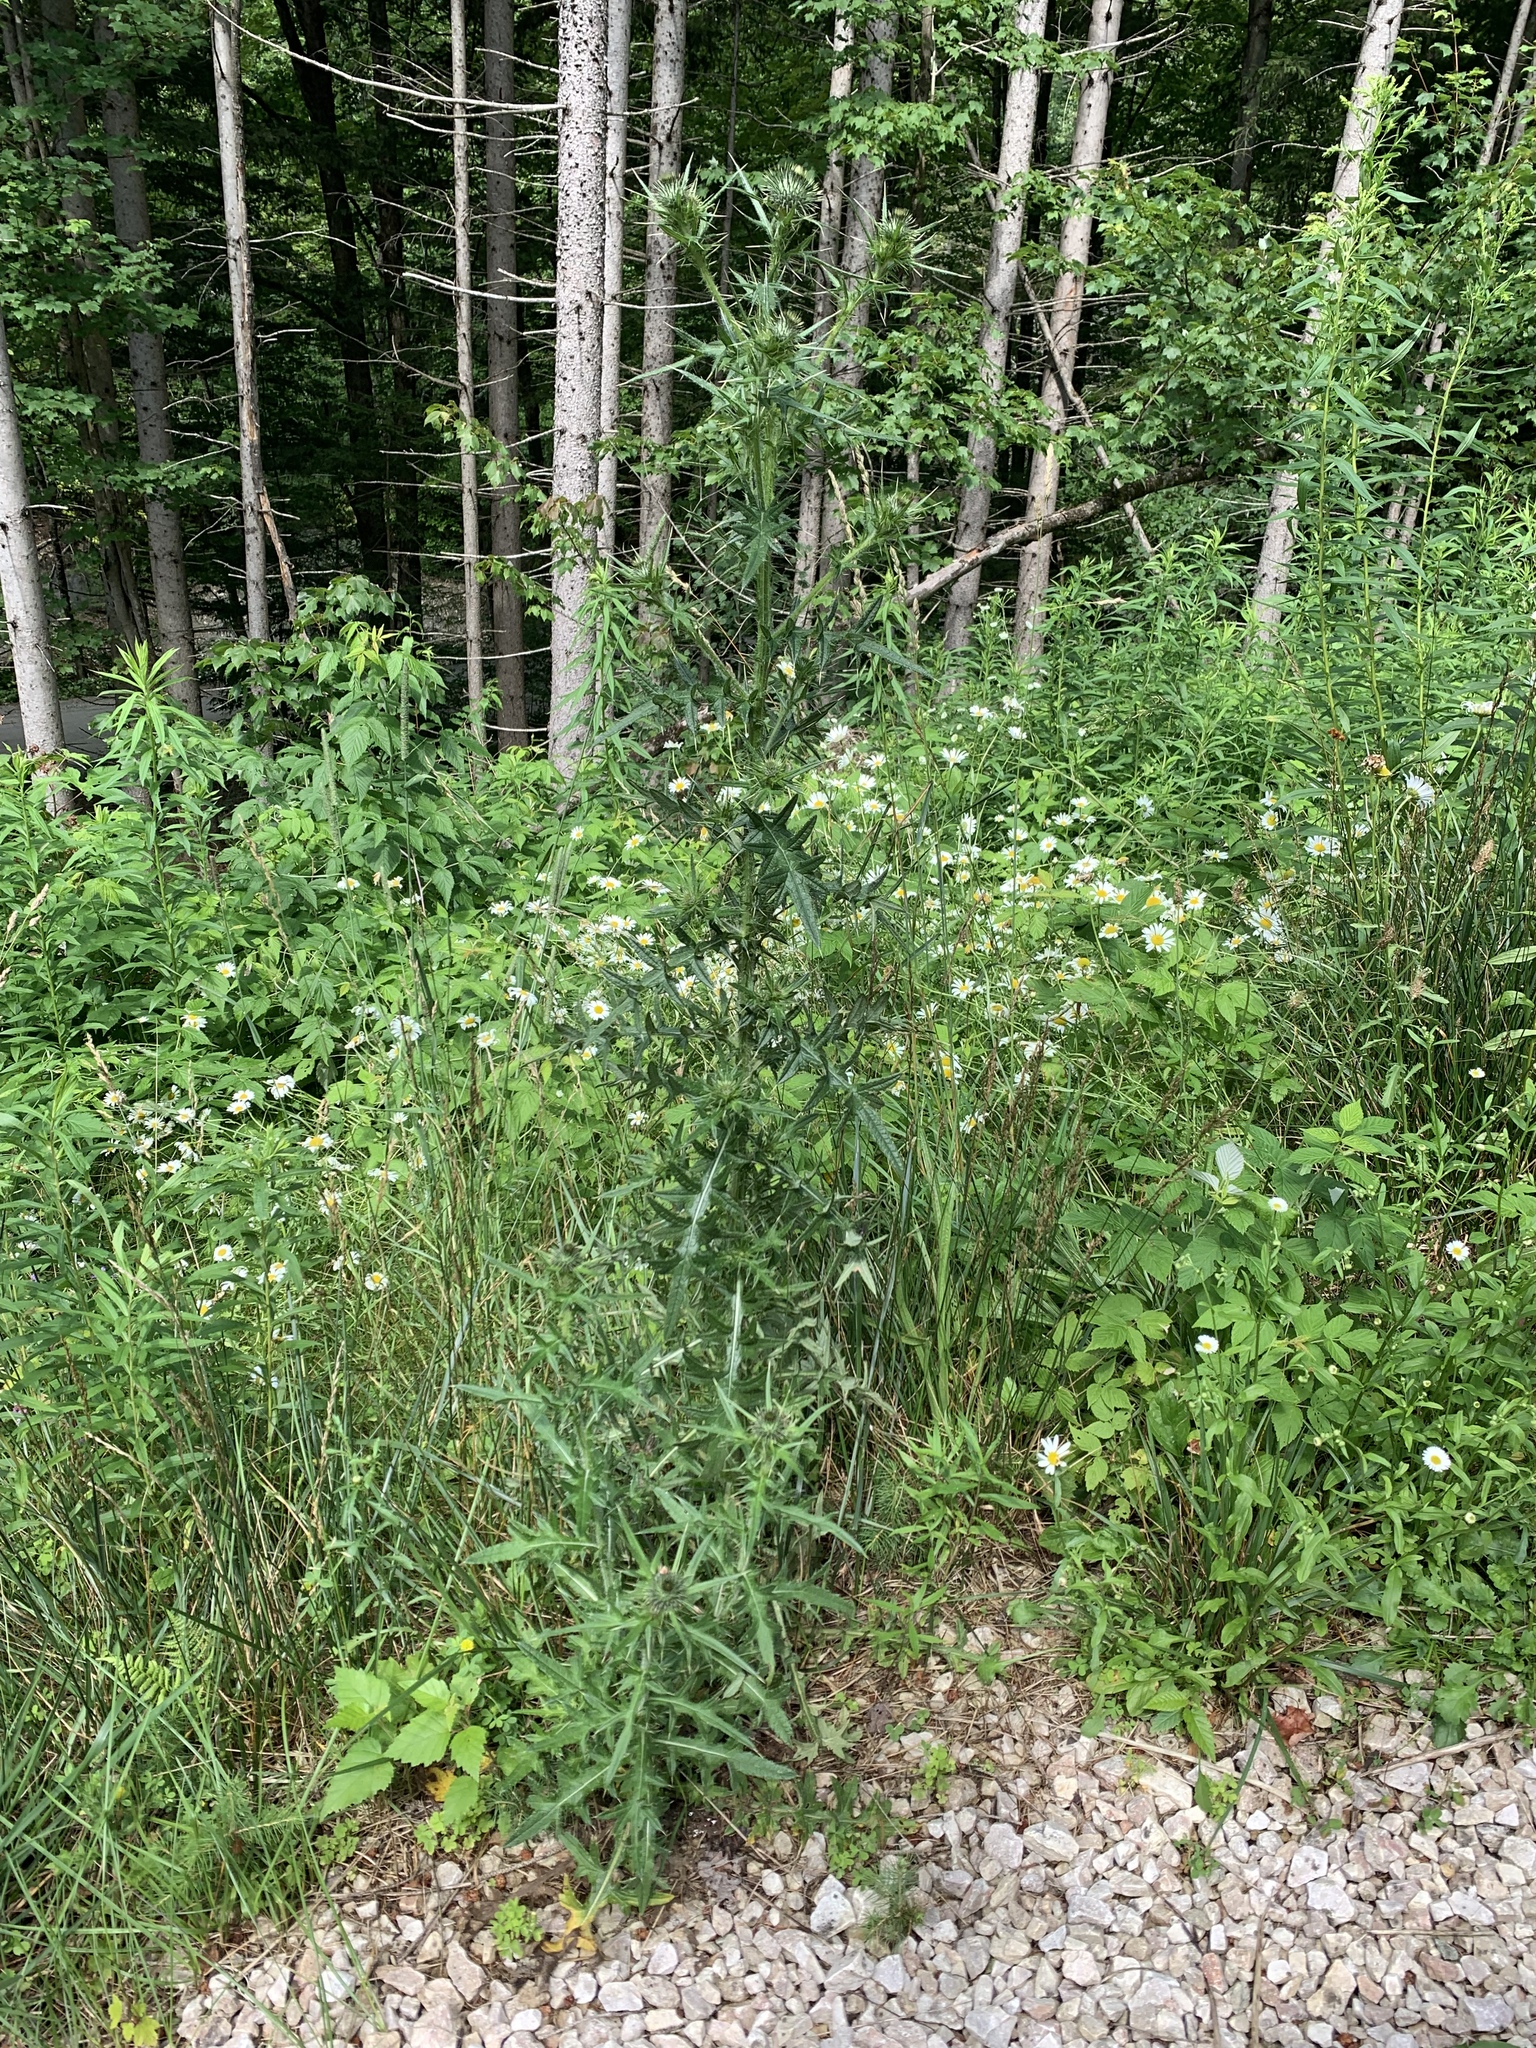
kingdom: Plantae
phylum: Tracheophyta
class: Magnoliopsida
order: Asterales
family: Asteraceae
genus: Cirsium
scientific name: Cirsium vulgare
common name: Bull thistle
